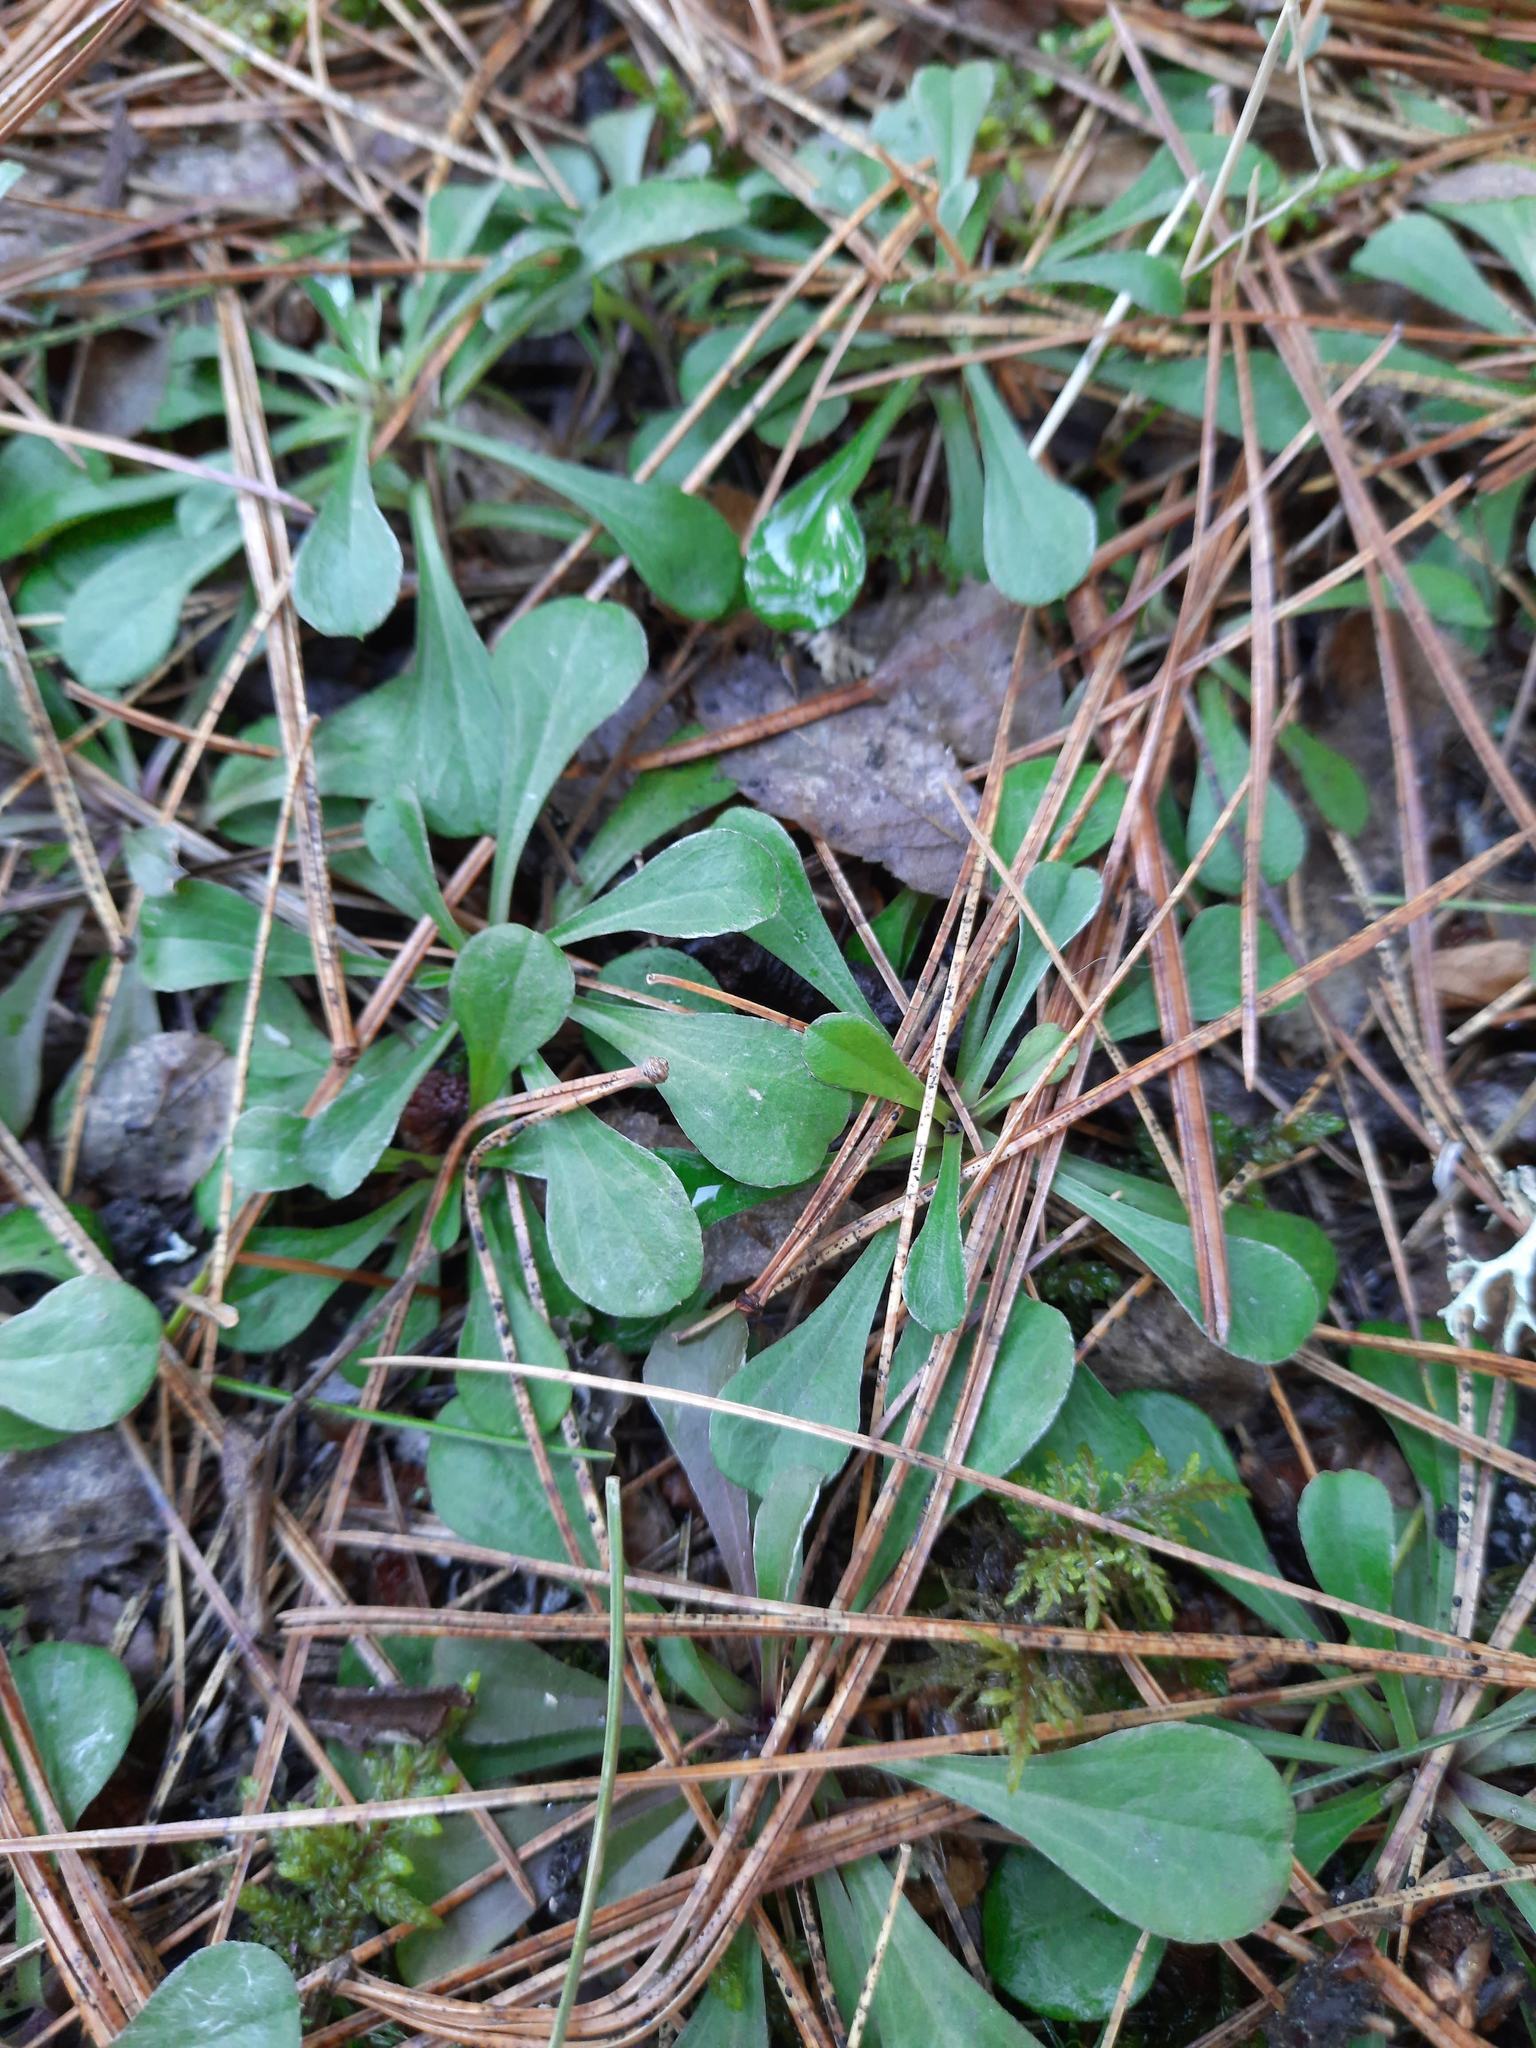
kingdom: Plantae
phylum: Tracheophyta
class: Magnoliopsida
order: Asterales
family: Asteraceae
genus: Antennaria
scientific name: Antennaria dioica
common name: Mountain everlasting
